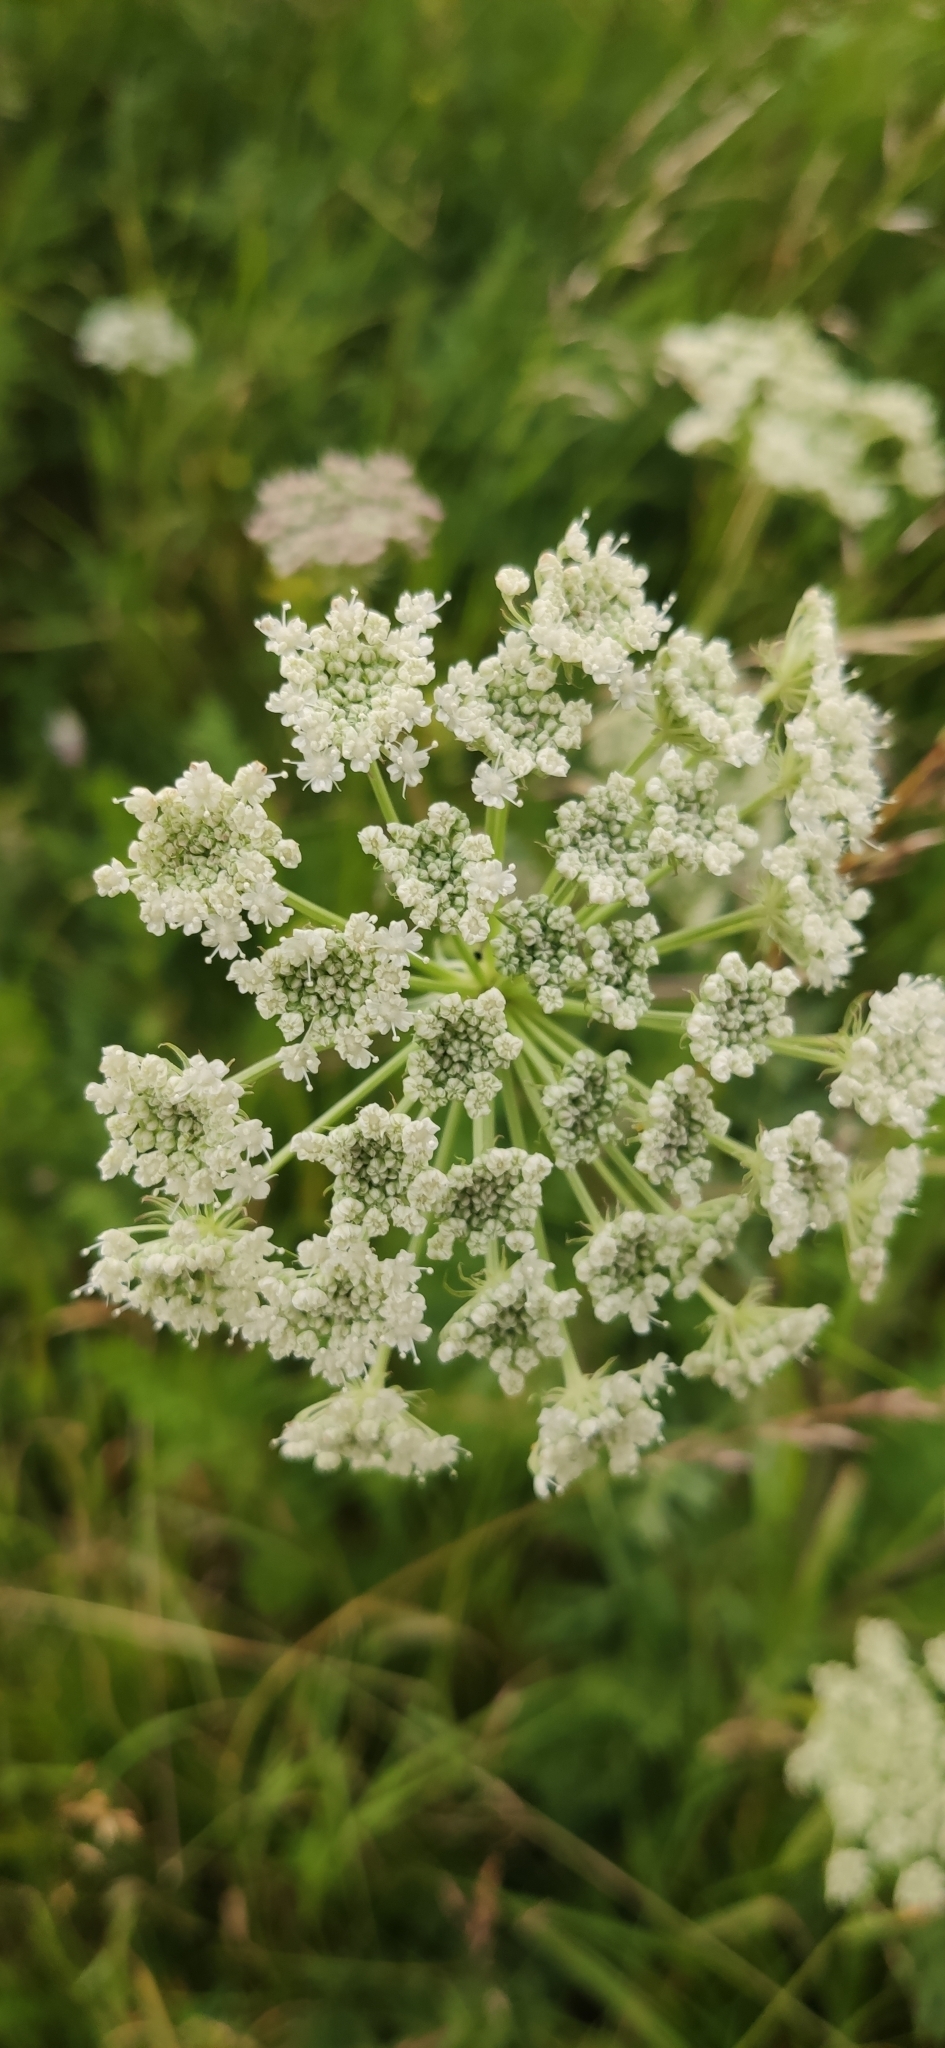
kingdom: Plantae
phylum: Tracheophyta
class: Magnoliopsida
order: Apiales
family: Apiaceae
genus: Seseli
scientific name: Seseli libanotis
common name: Mooncarrot
